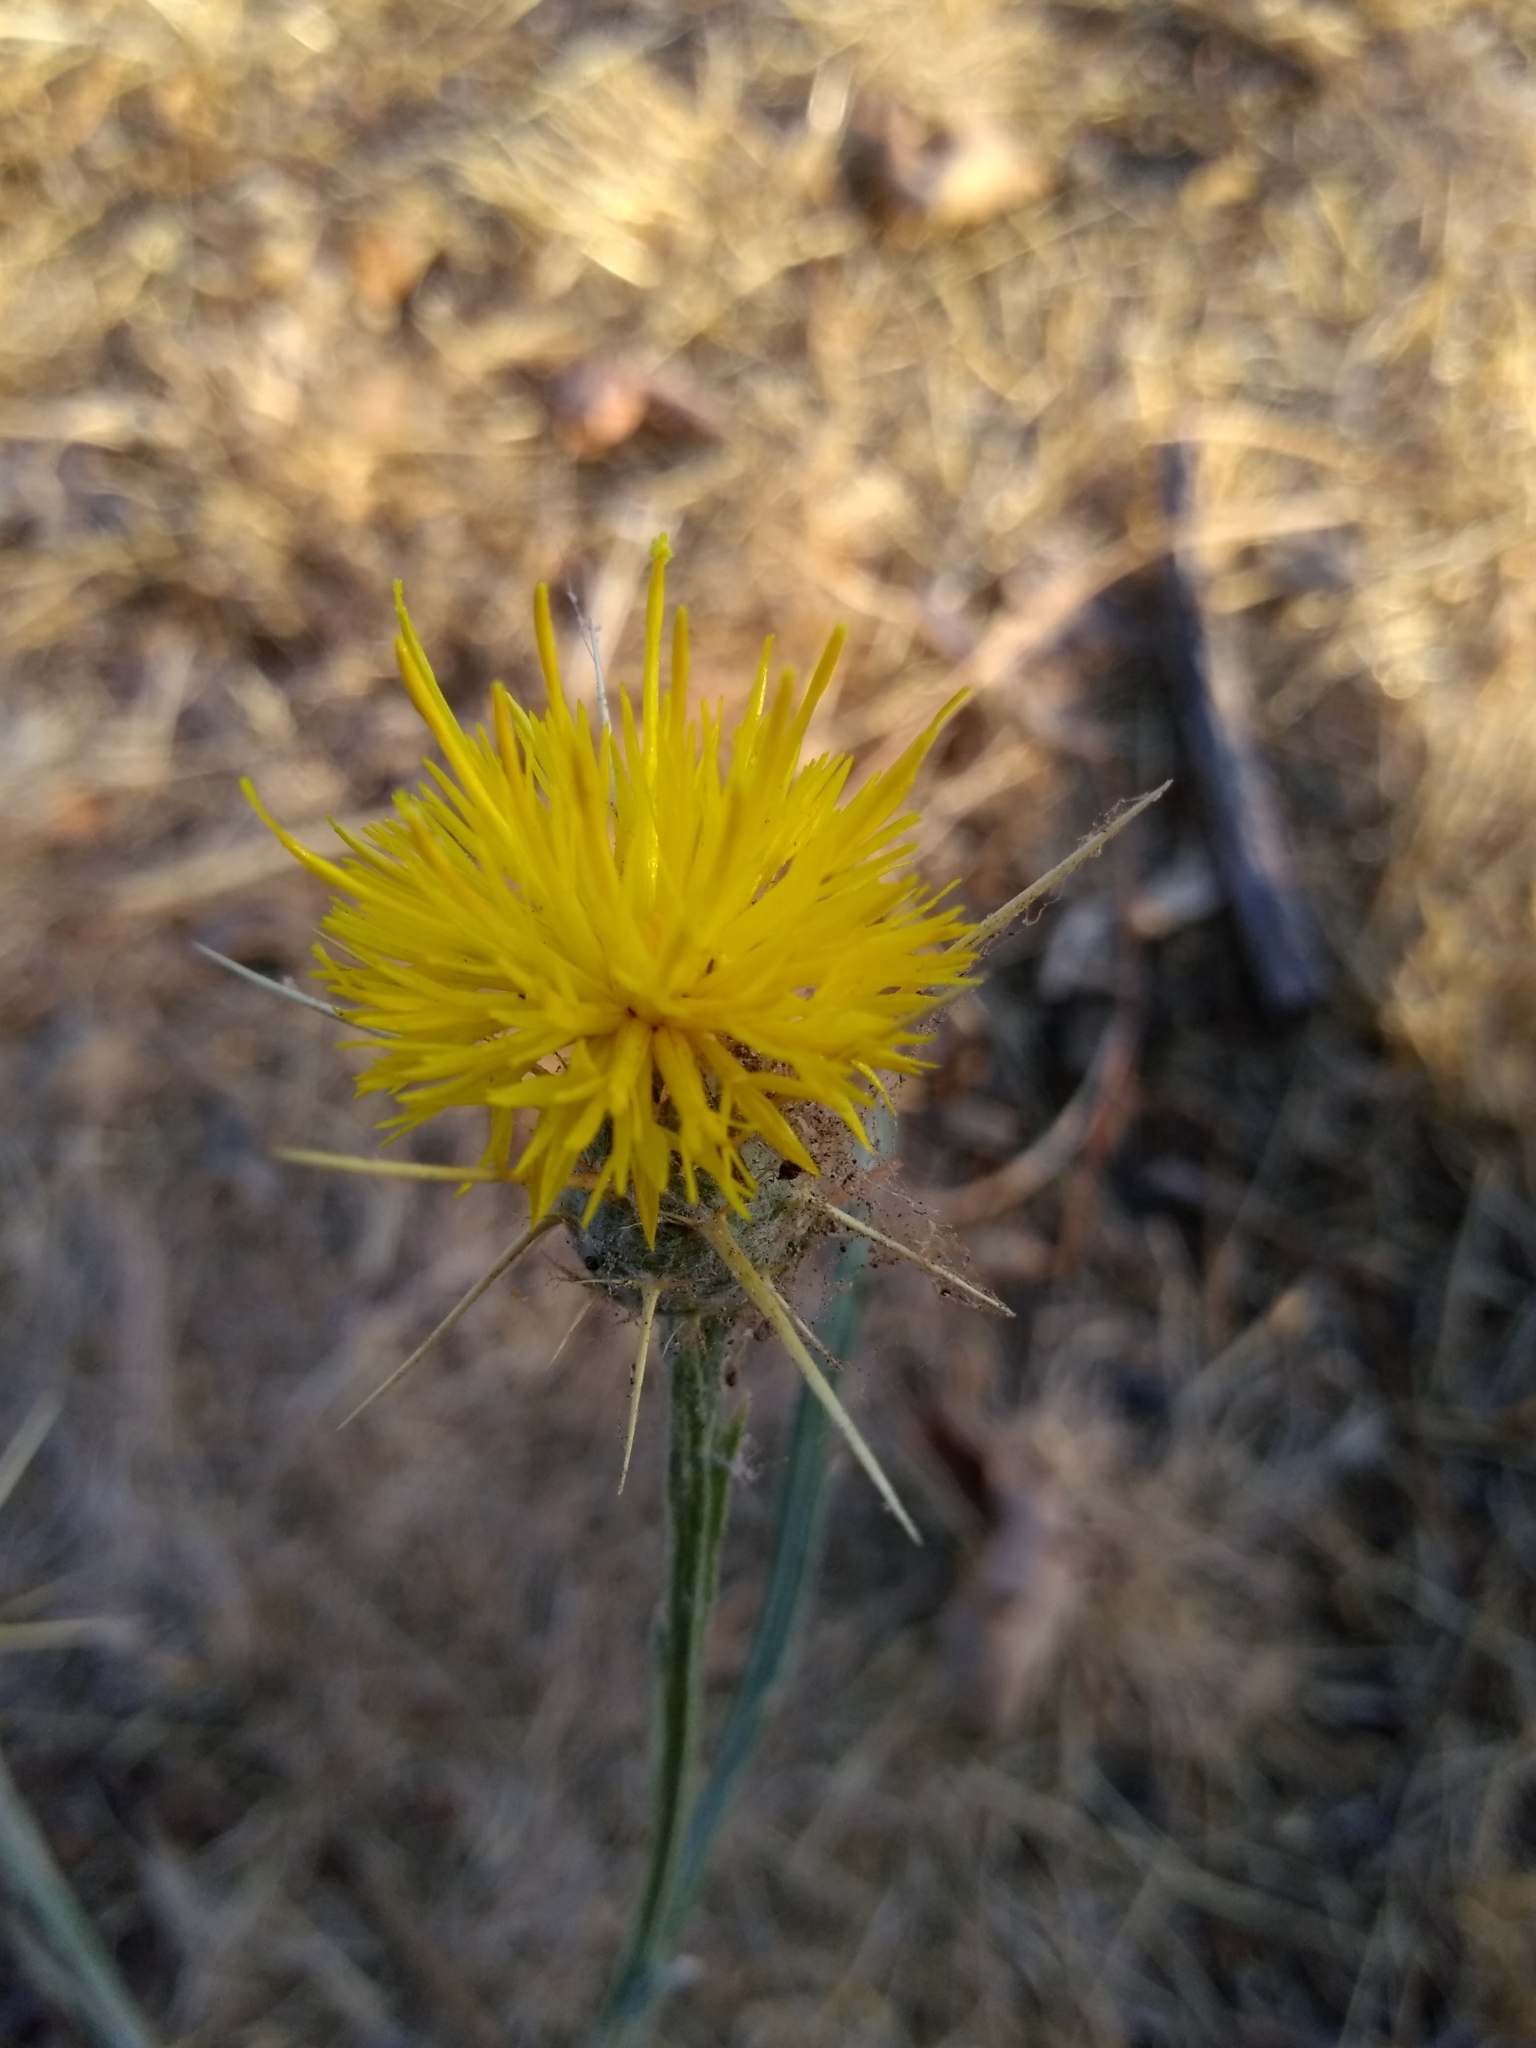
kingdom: Plantae
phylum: Tracheophyta
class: Magnoliopsida
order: Asterales
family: Asteraceae
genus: Centaurea
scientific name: Centaurea solstitialis
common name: Yellow star-thistle
